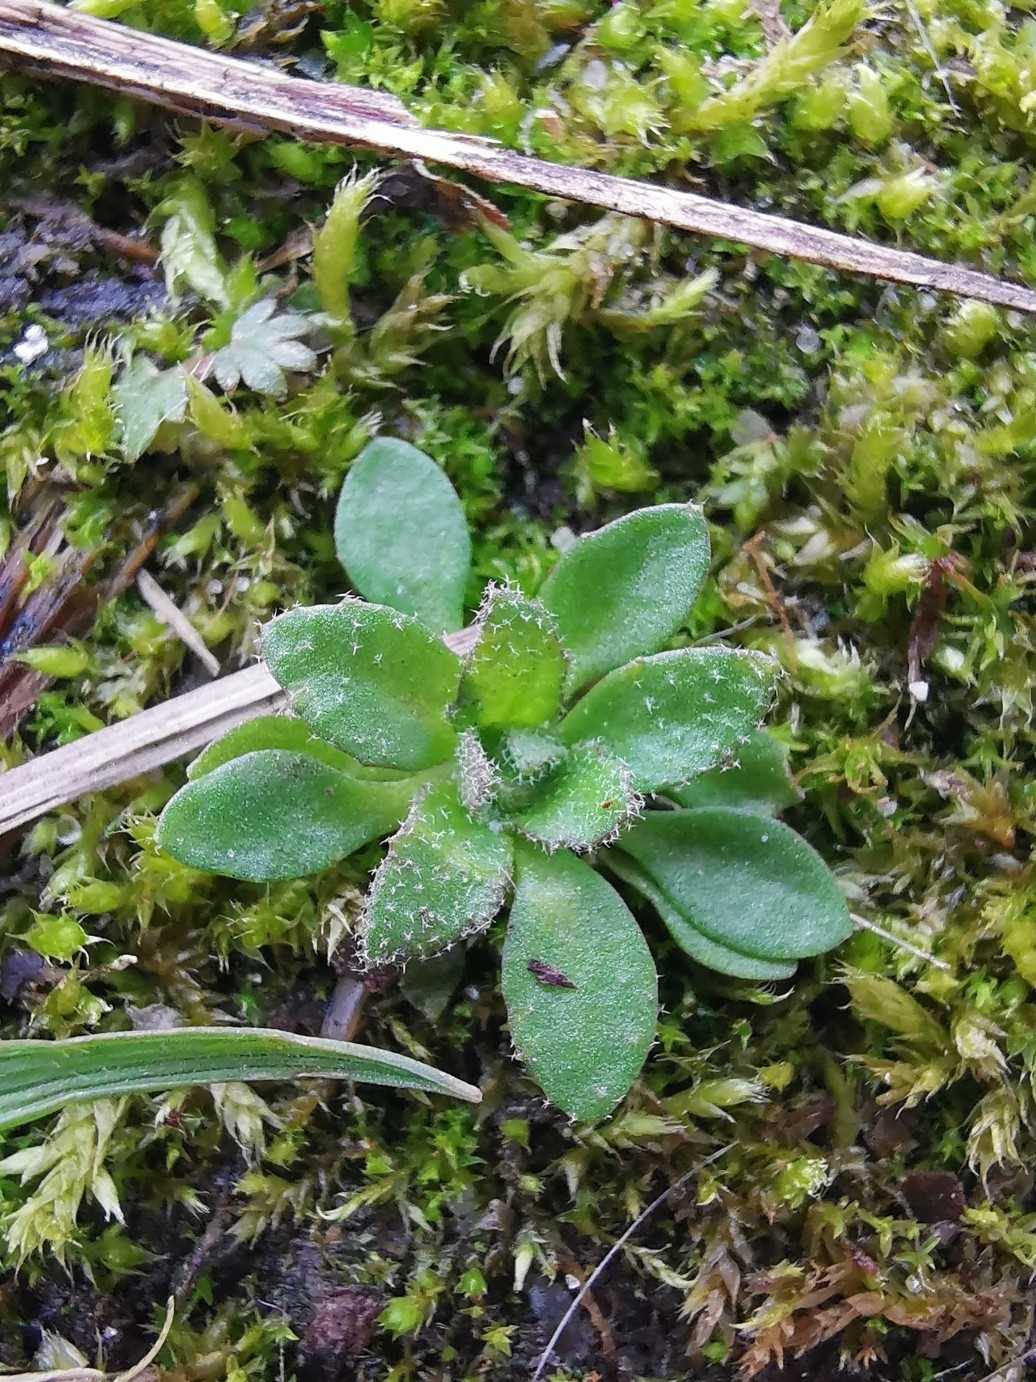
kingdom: Plantae
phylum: Tracheophyta
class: Magnoliopsida
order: Brassicales
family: Brassicaceae
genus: Draba
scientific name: Draba verna
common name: Spring draba
